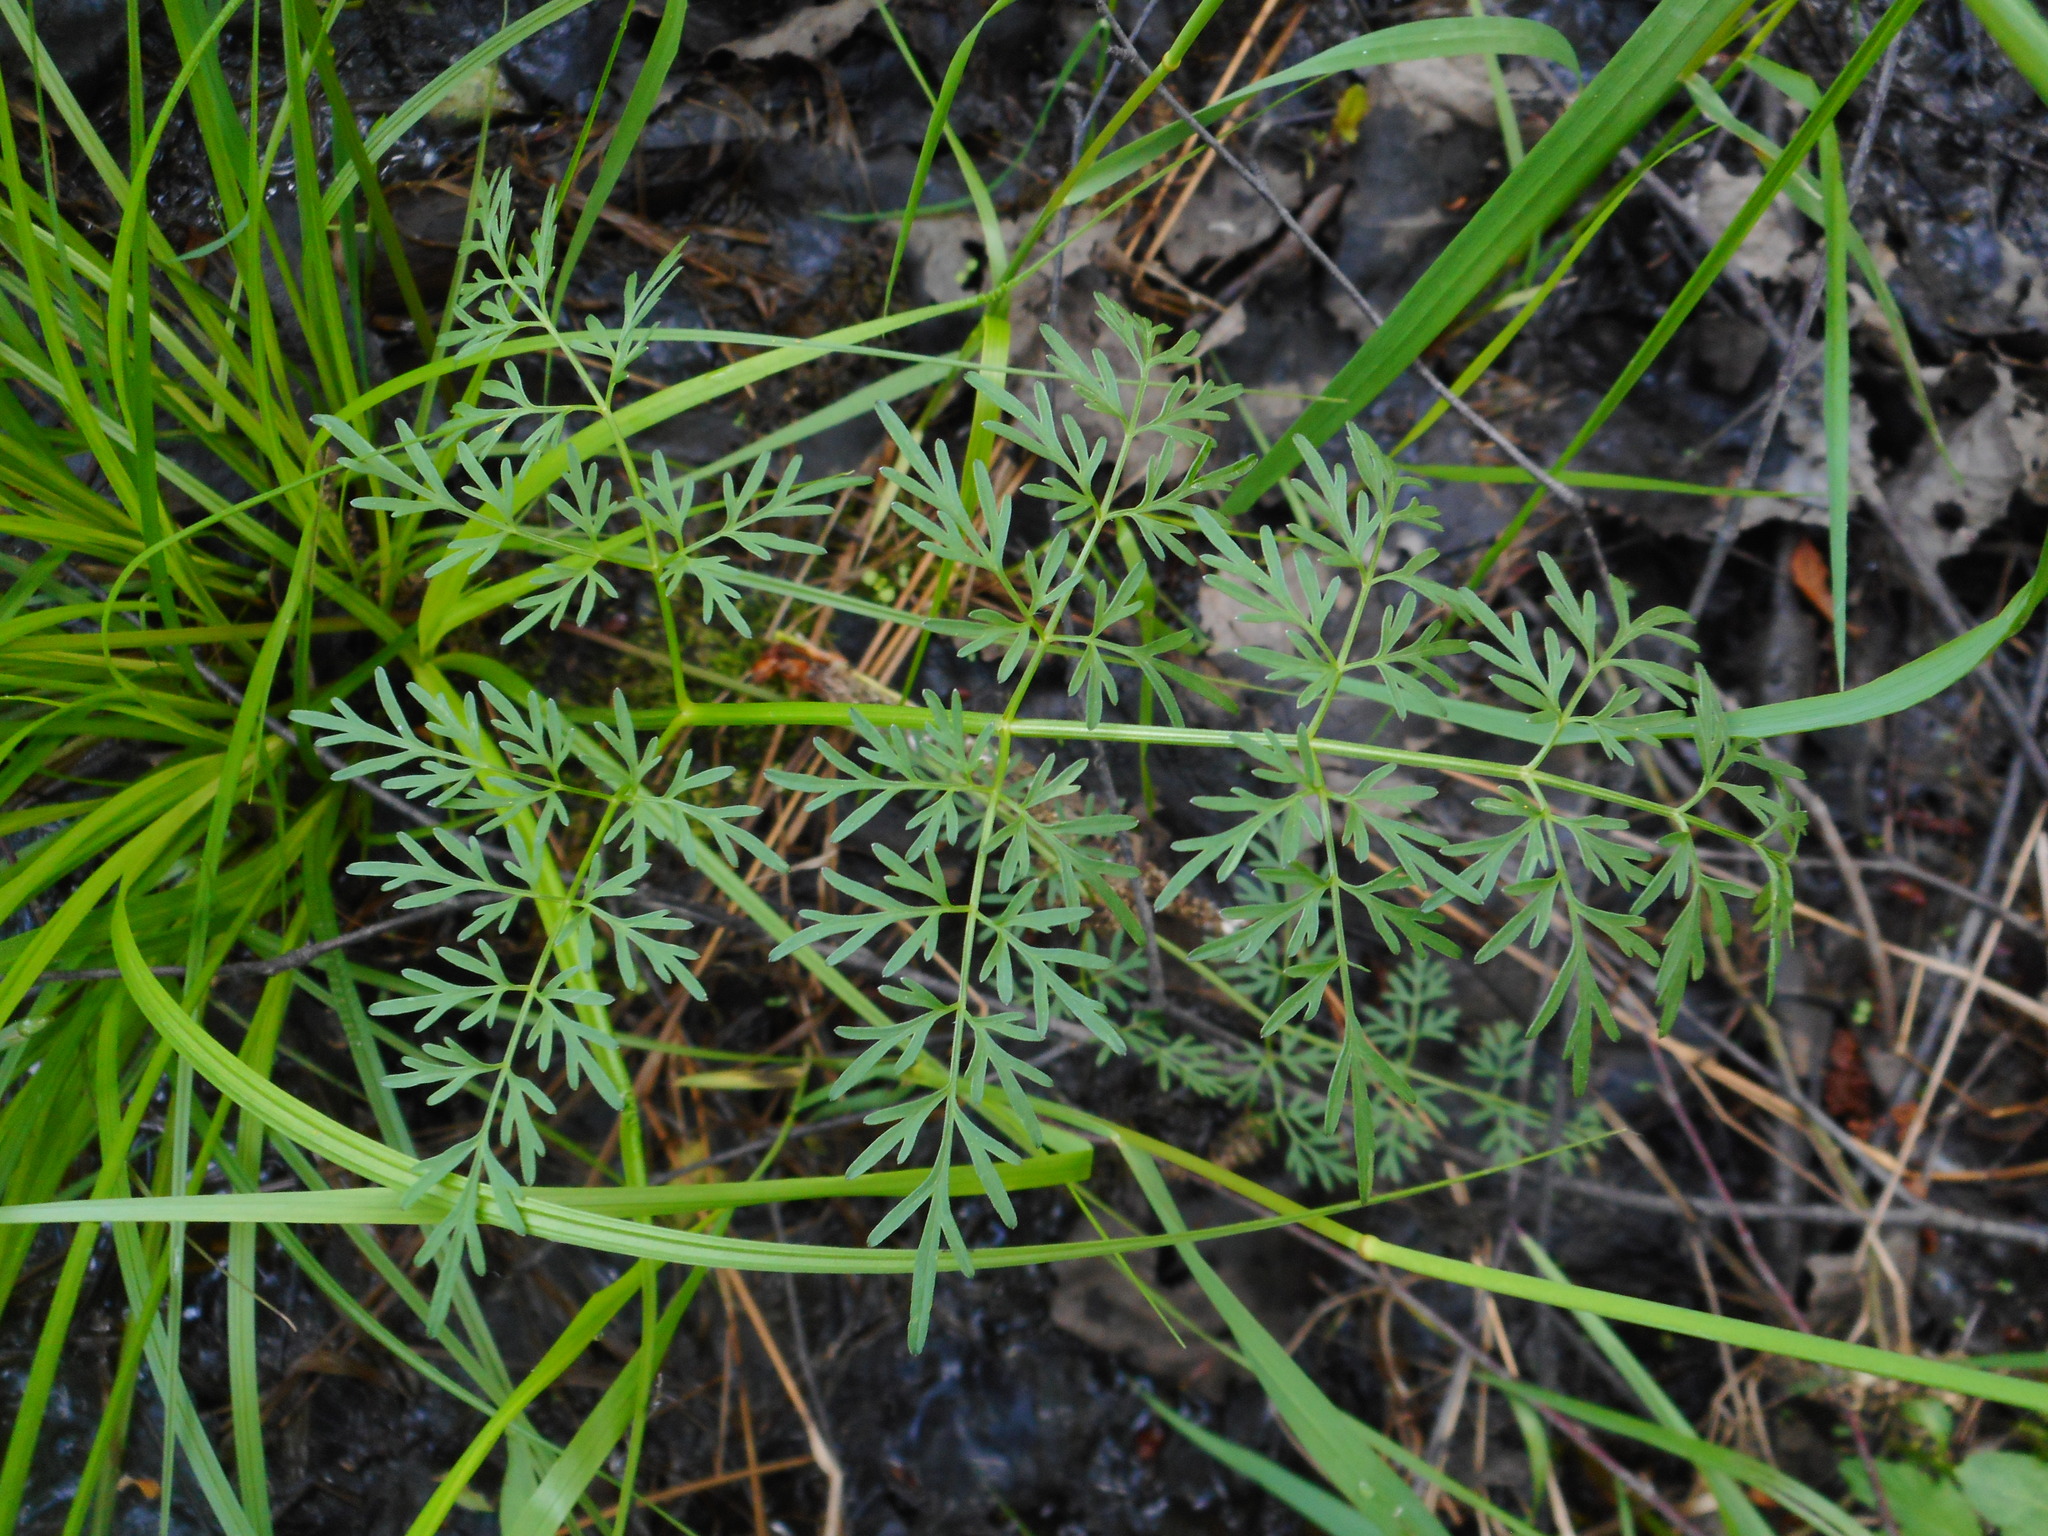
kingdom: Plantae
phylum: Tracheophyta
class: Magnoliopsida
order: Apiales
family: Apiaceae
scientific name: Apiaceae
